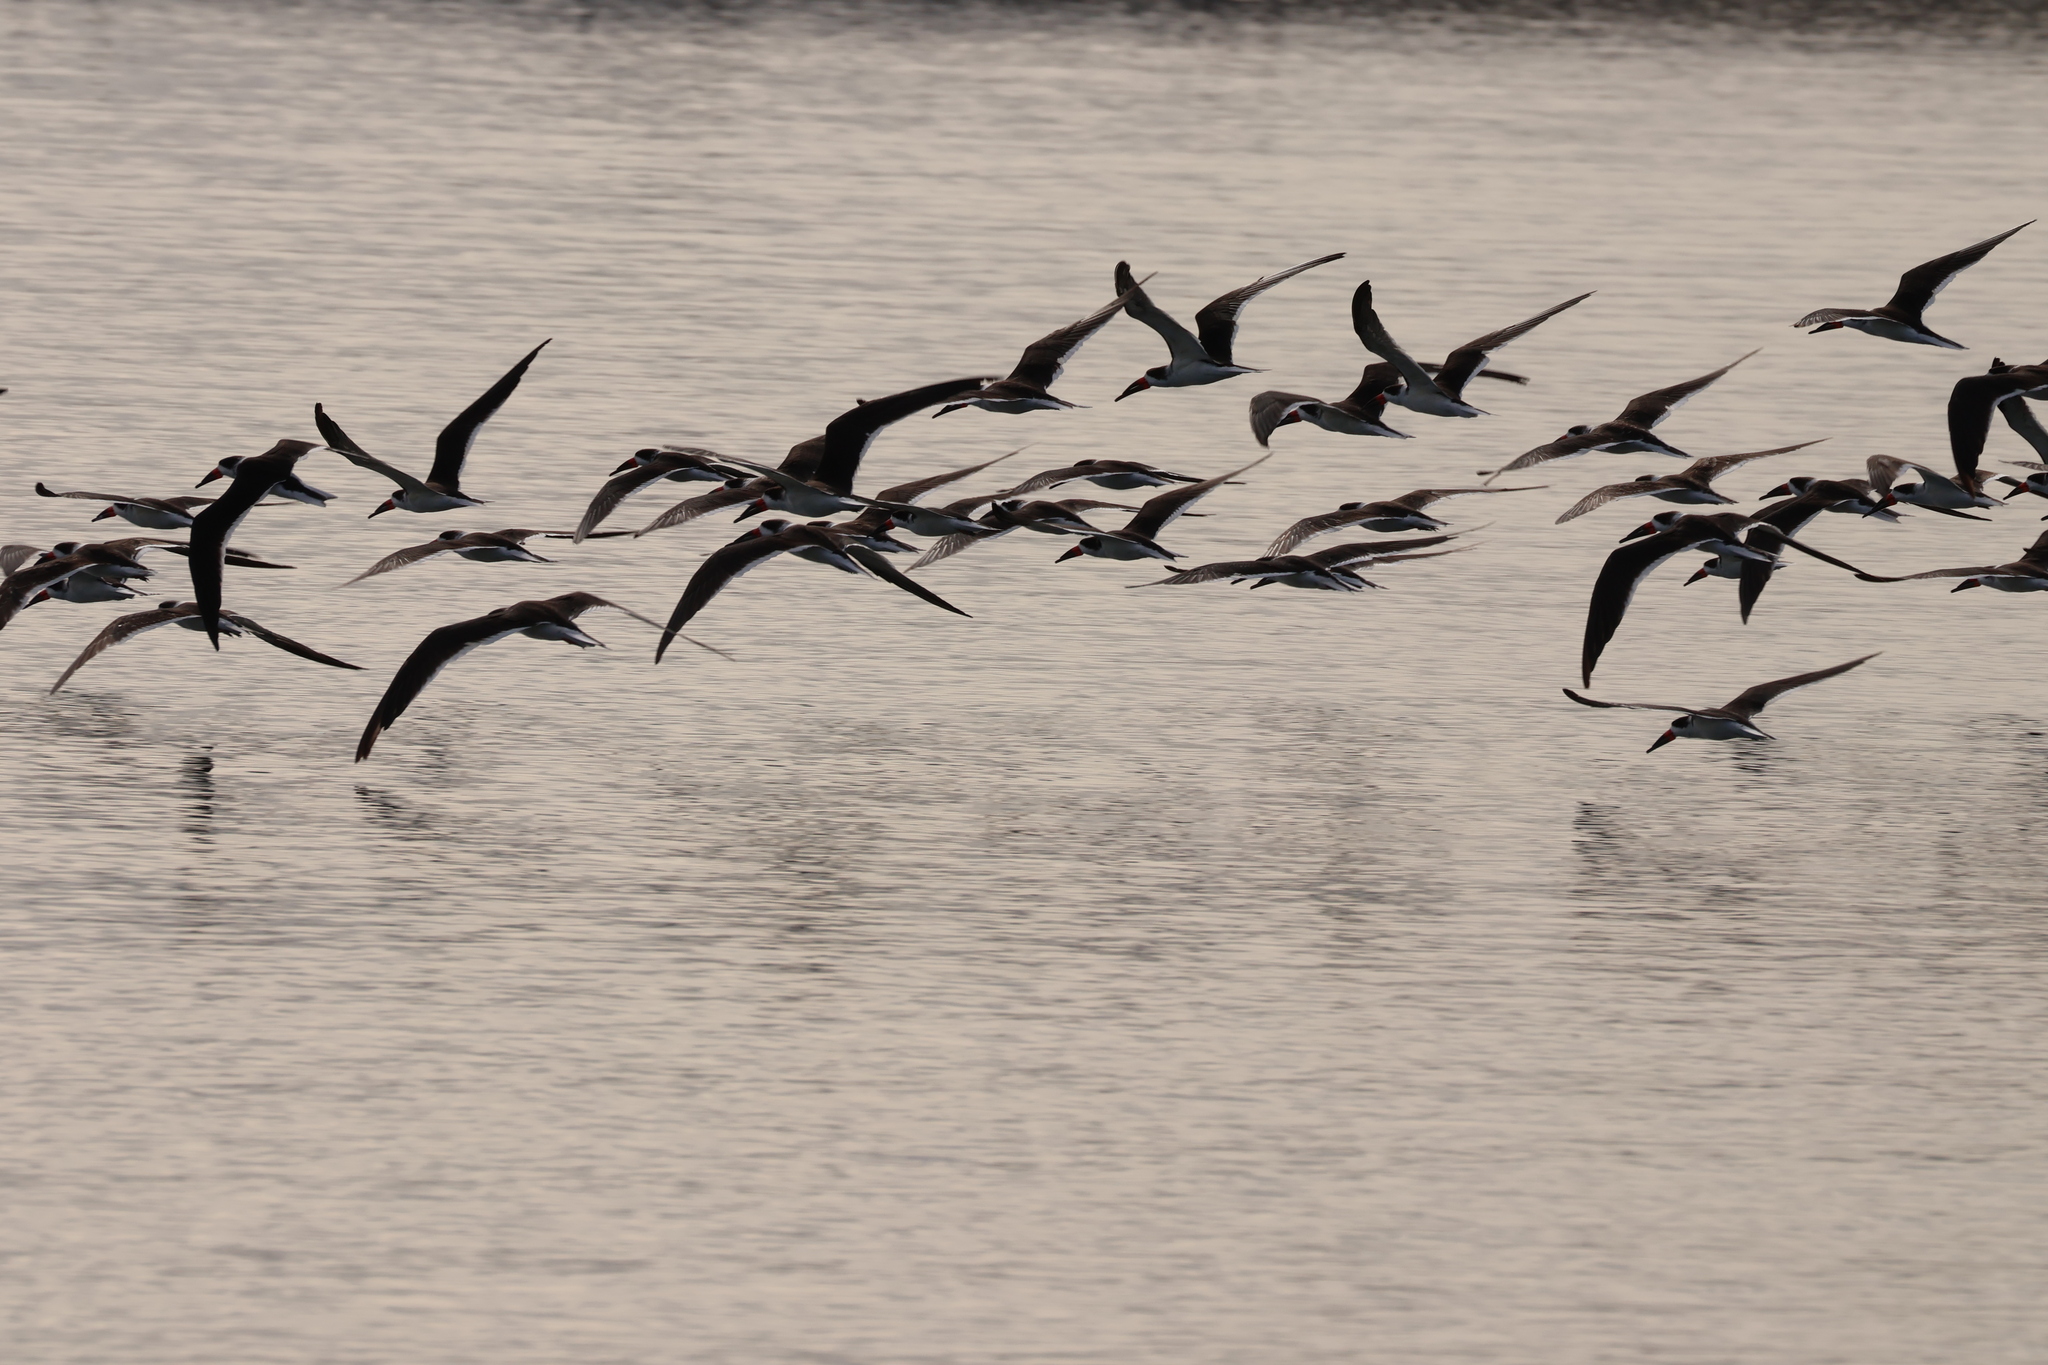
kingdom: Animalia
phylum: Chordata
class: Aves
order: Charadriiformes
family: Laridae
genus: Rynchops
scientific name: Rynchops niger
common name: Black skimmer
